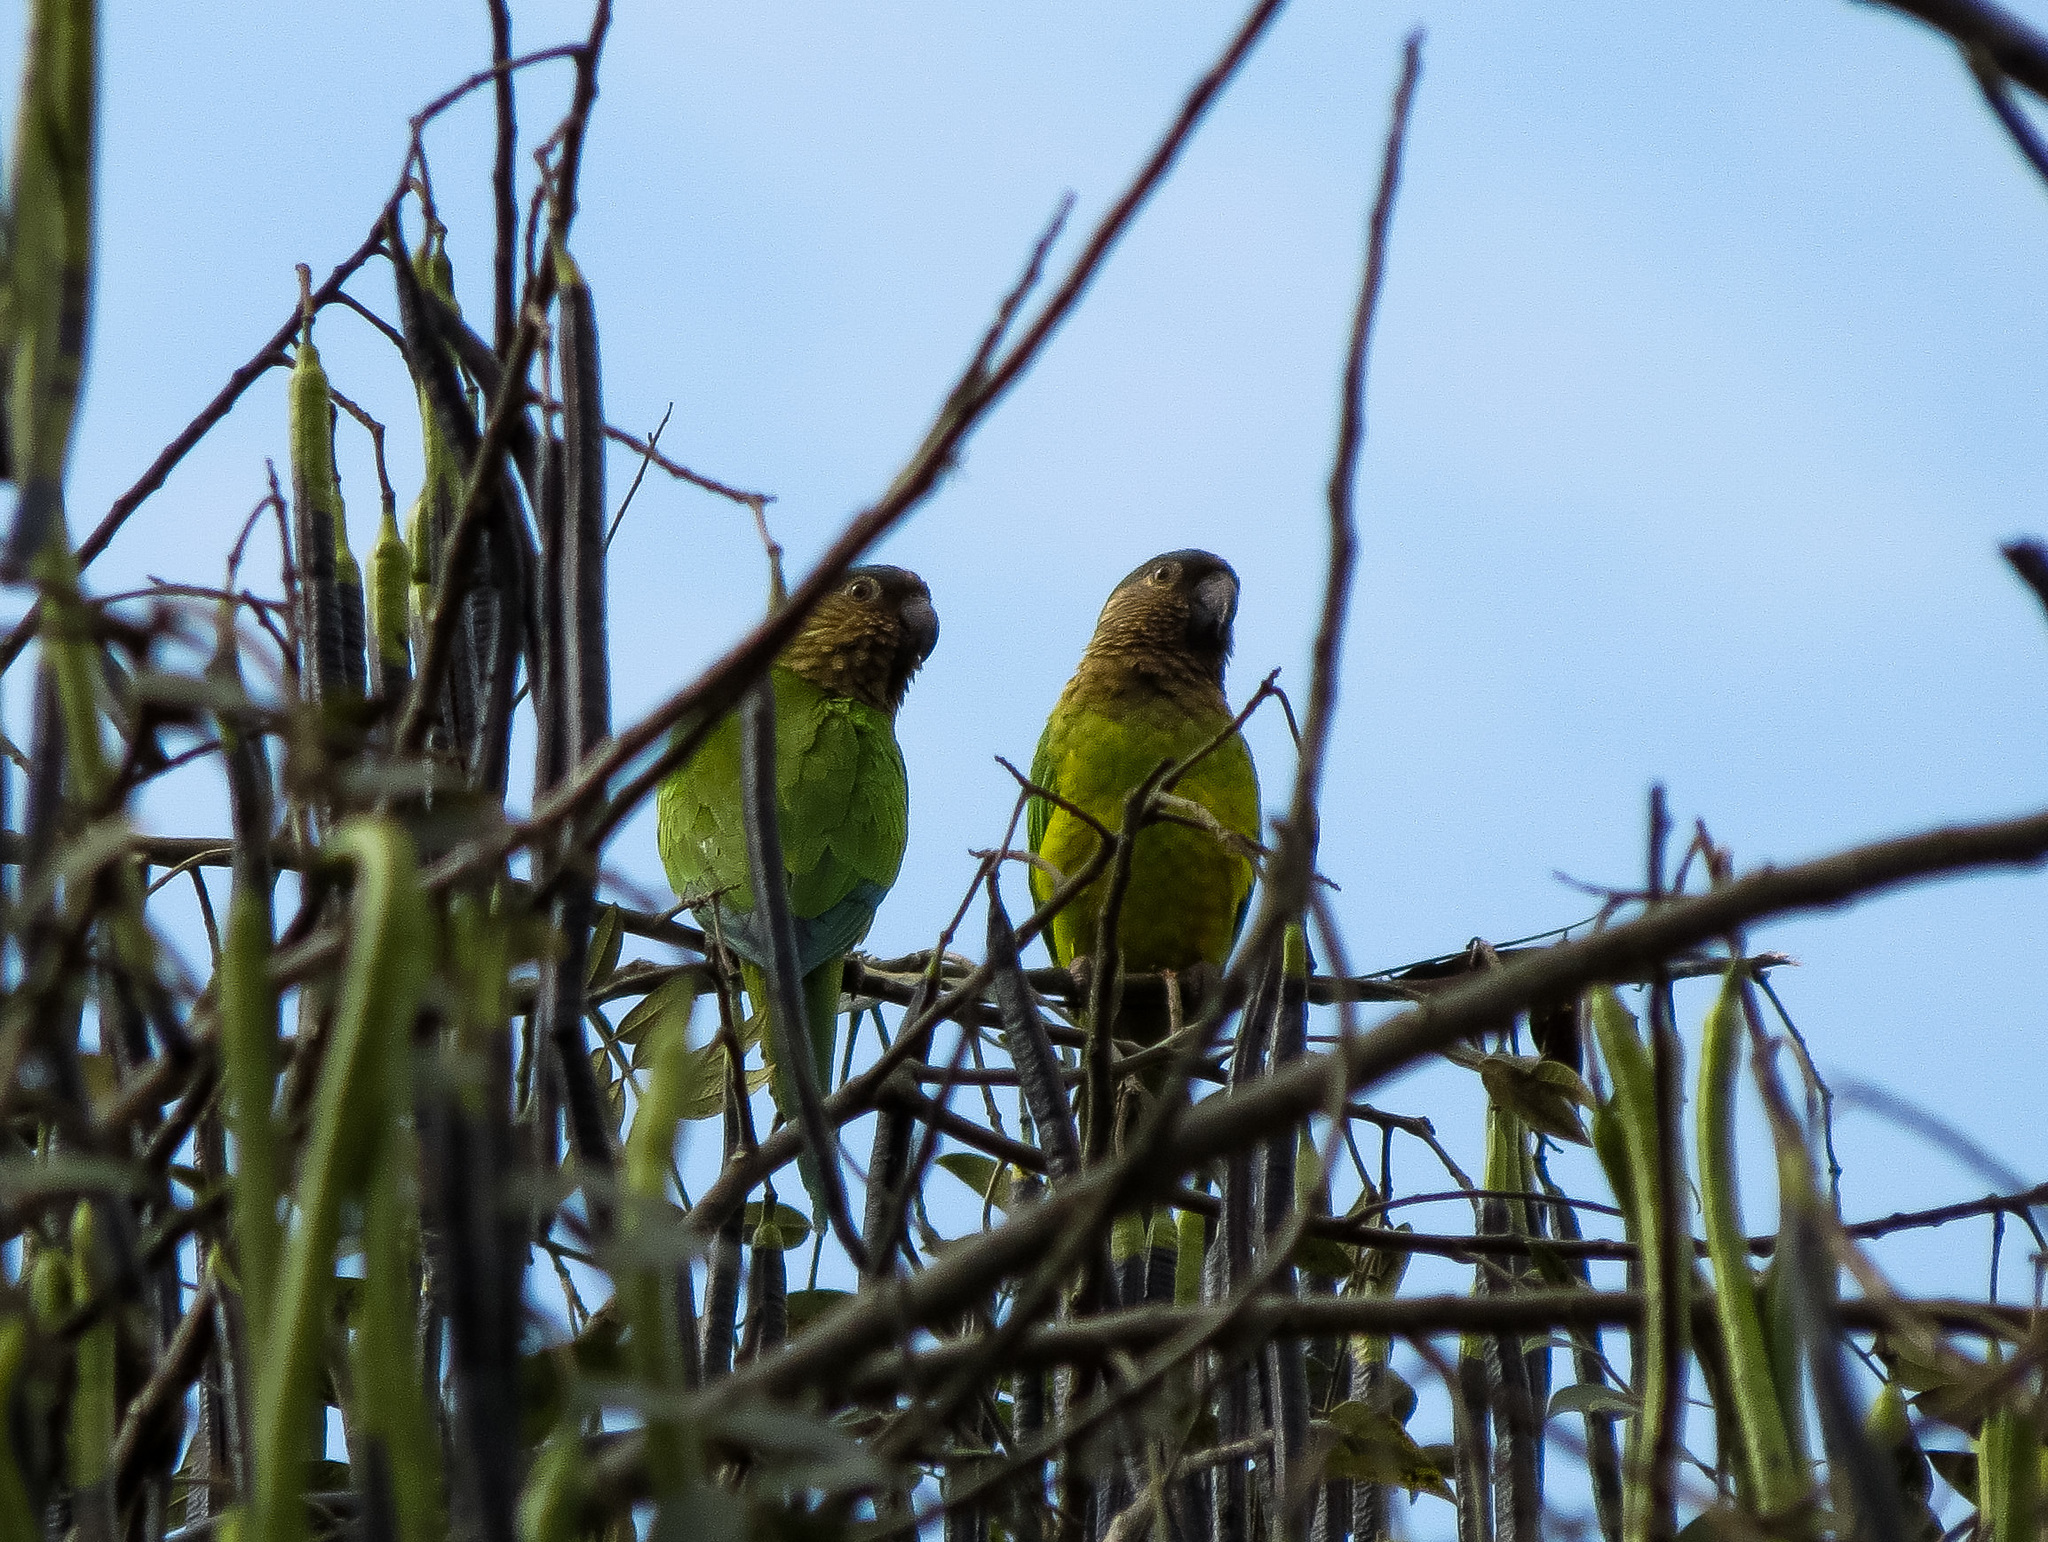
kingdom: Animalia
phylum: Chordata
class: Aves
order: Psittaciformes
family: Psittacidae
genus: Aratinga
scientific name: Aratinga pertinax
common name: Brown-throated parakeet
